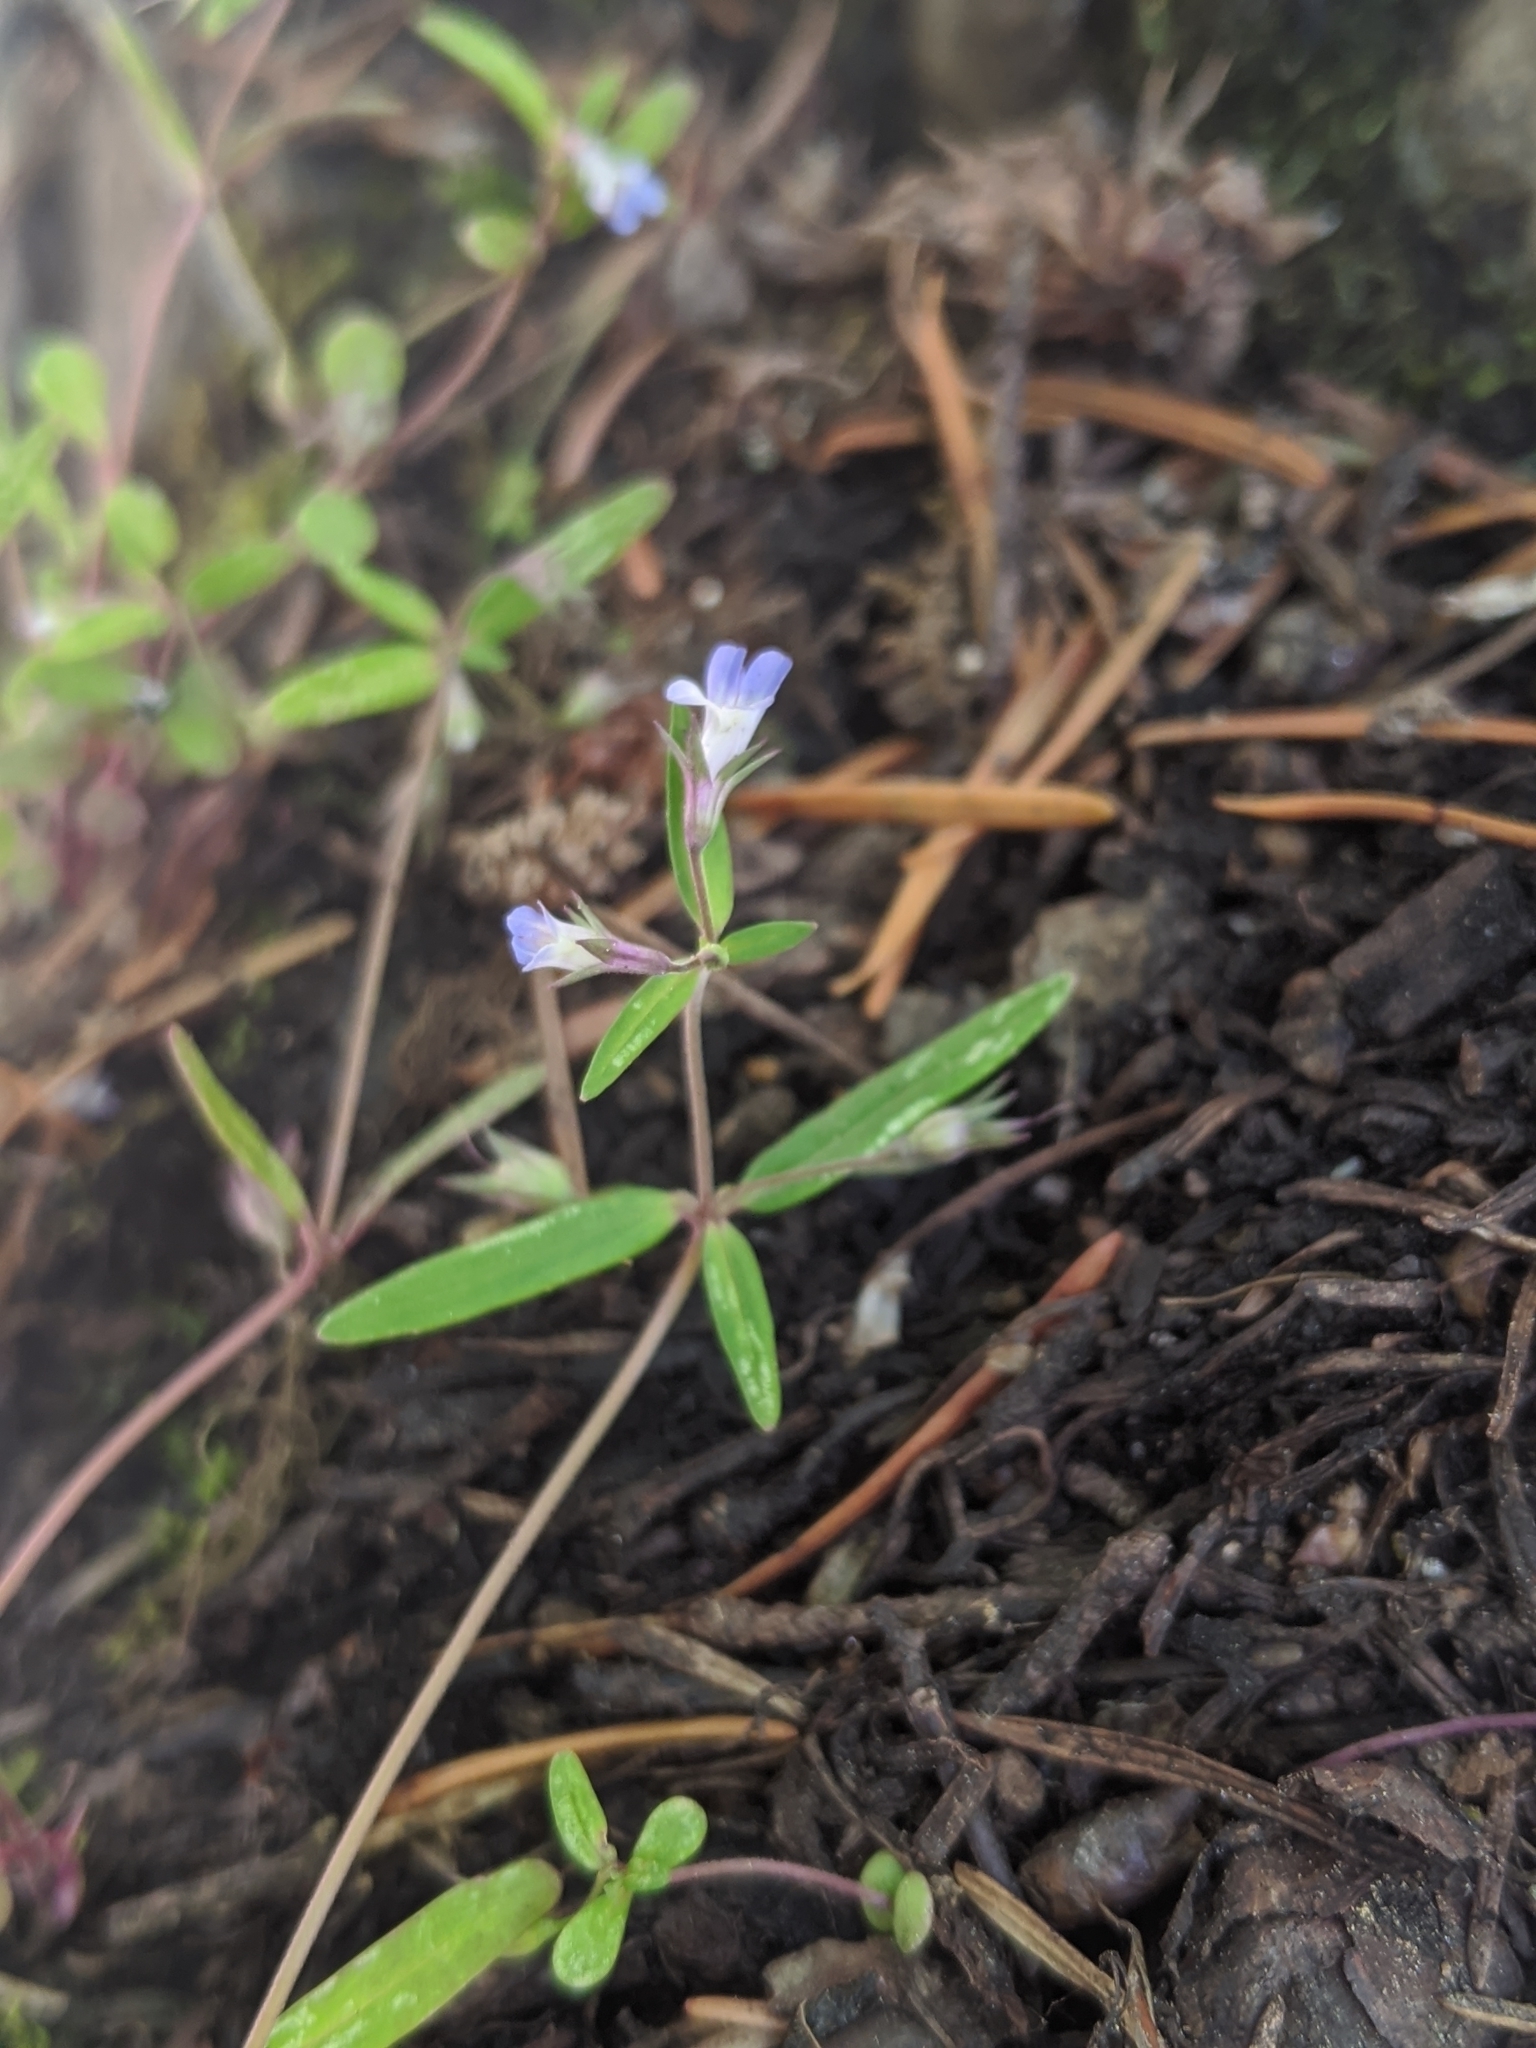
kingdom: Plantae
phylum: Tracheophyta
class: Magnoliopsida
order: Lamiales
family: Plantaginaceae
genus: Collinsia
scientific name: Collinsia parviflora
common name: Blue-lips
